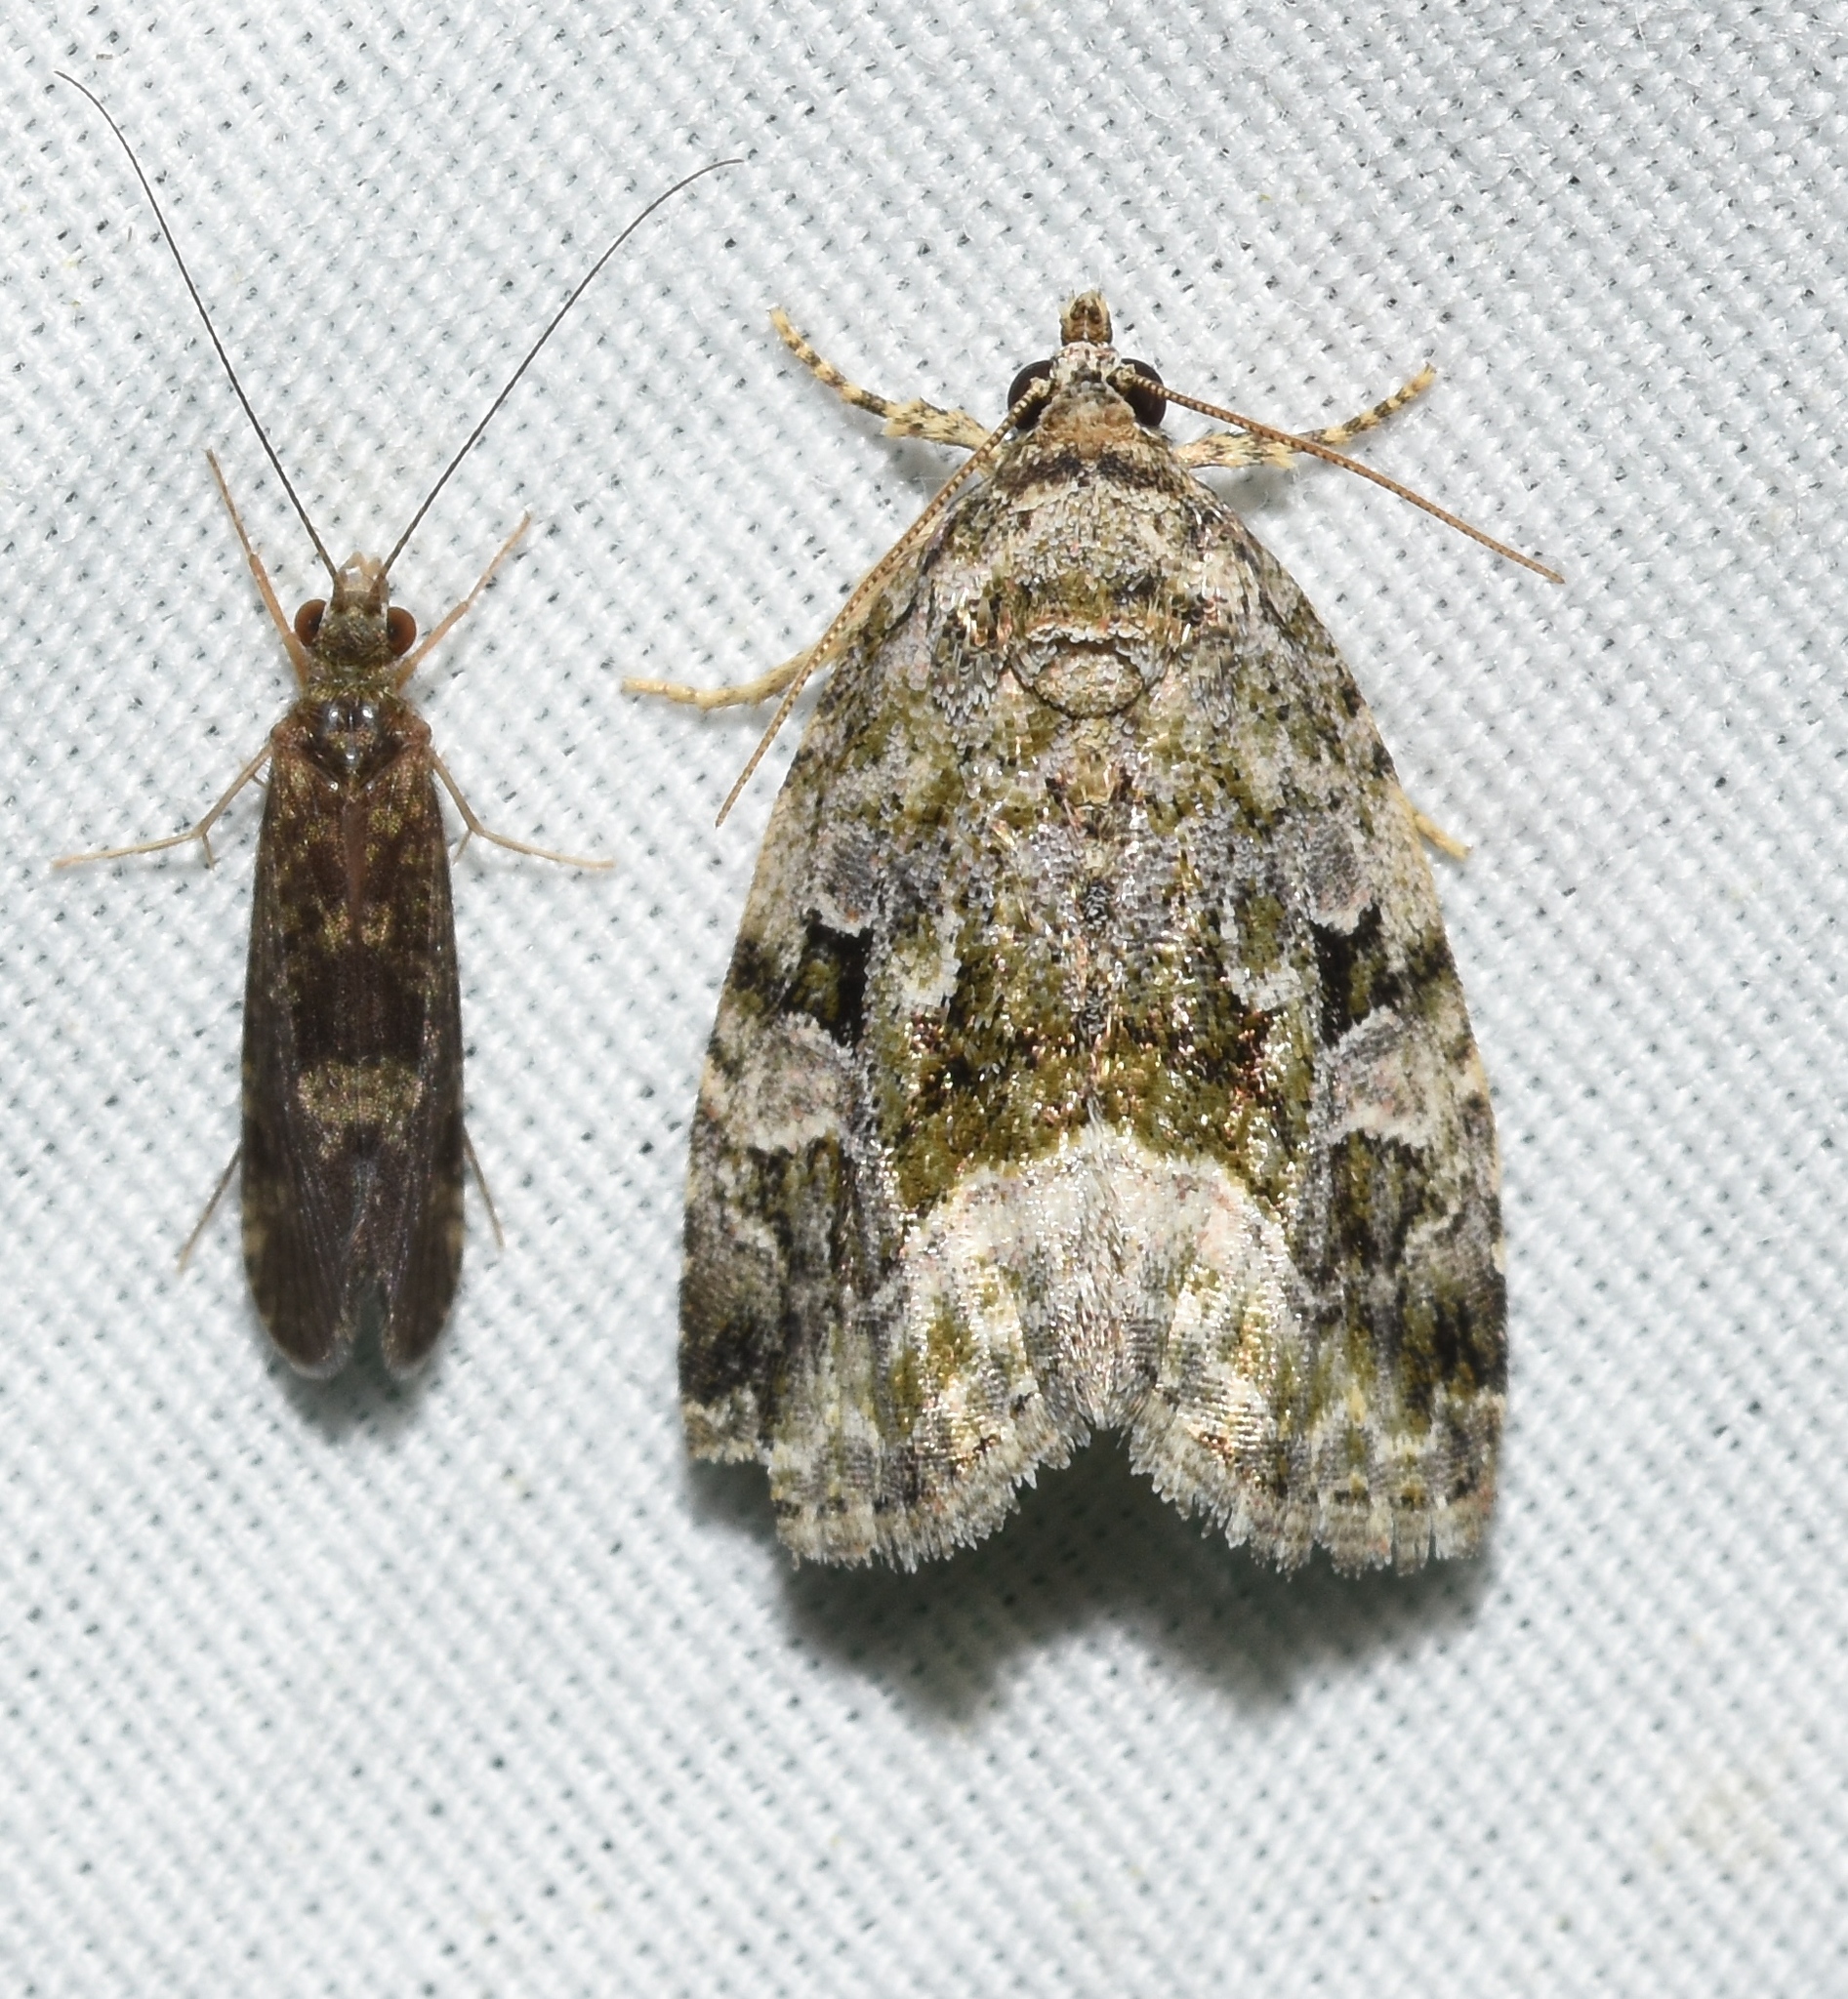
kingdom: Animalia
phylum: Arthropoda
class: Insecta
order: Lepidoptera
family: Noctuidae
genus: Protodeltote
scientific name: Protodeltote muscosula
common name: Large mossy glyph
